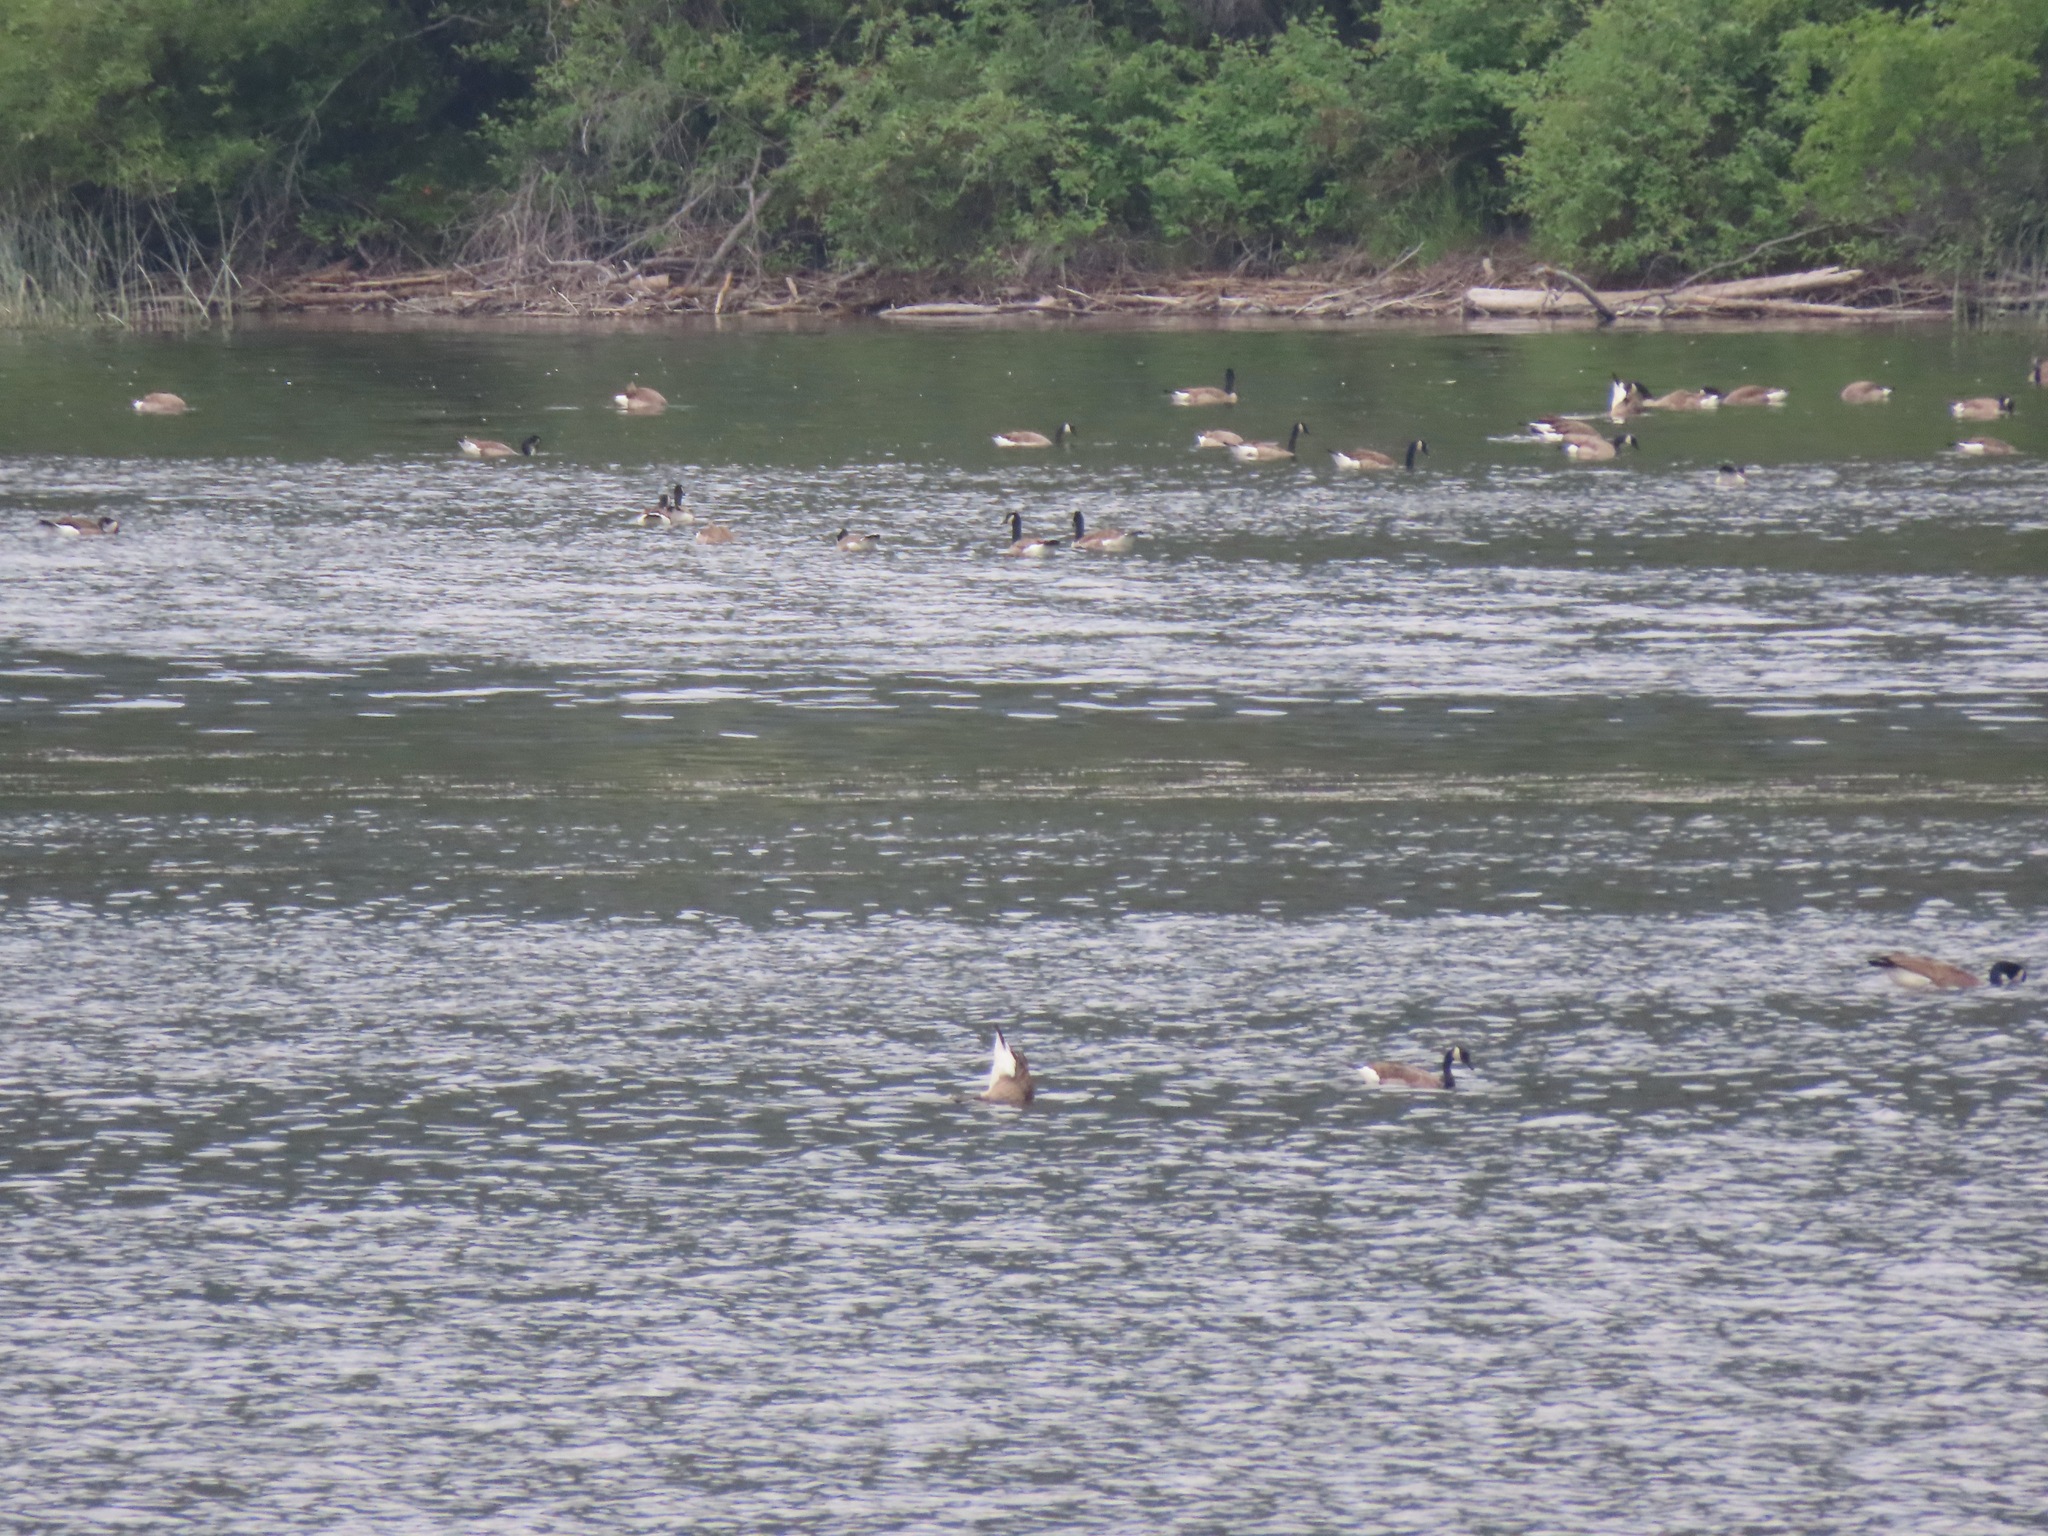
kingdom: Animalia
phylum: Chordata
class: Aves
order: Anseriformes
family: Anatidae
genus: Branta
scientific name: Branta canadensis
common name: Canada goose
